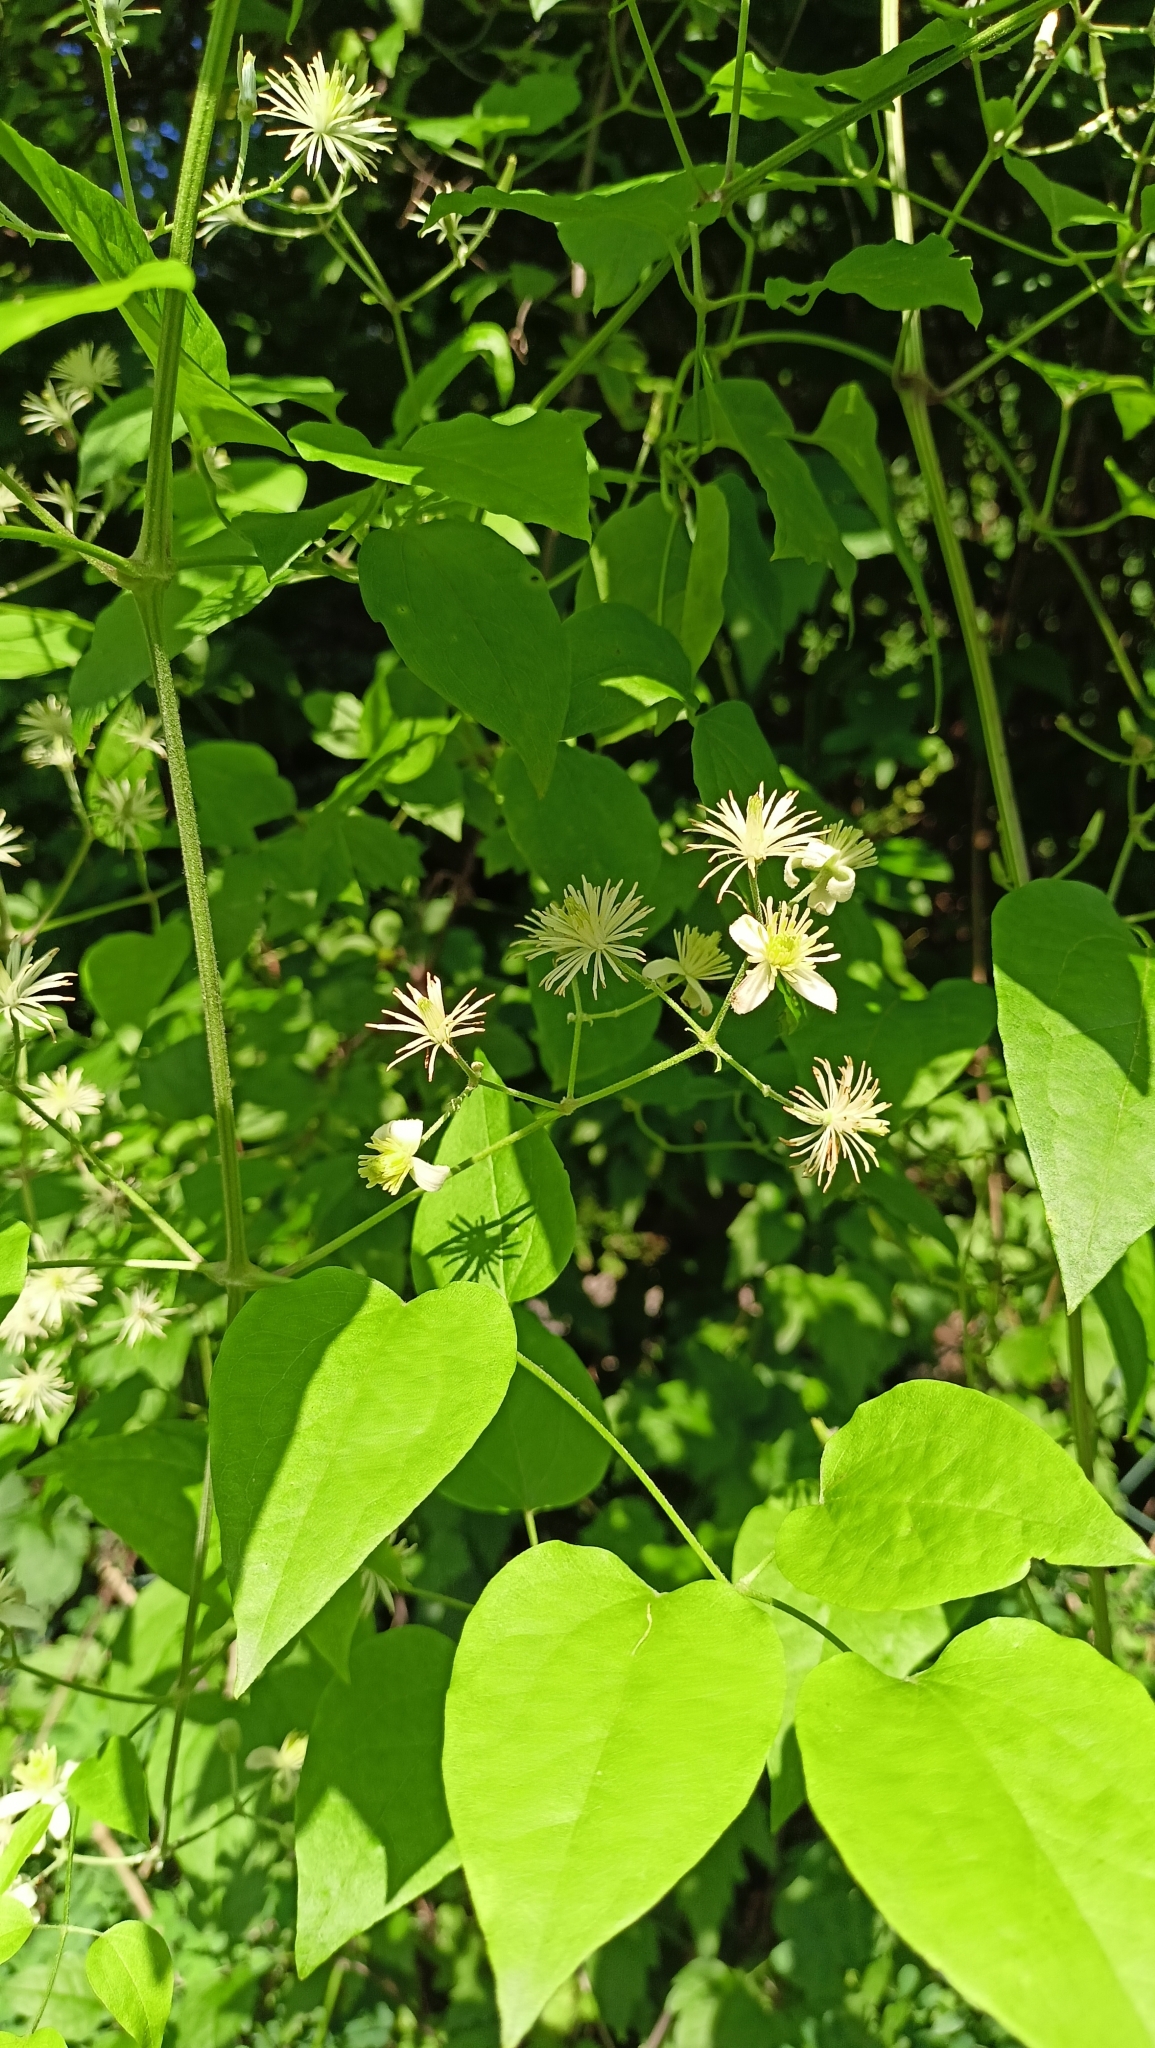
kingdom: Plantae
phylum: Tracheophyta
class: Magnoliopsida
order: Ranunculales
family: Ranunculaceae
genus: Clematis
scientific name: Clematis vitalba
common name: Evergreen clematis
